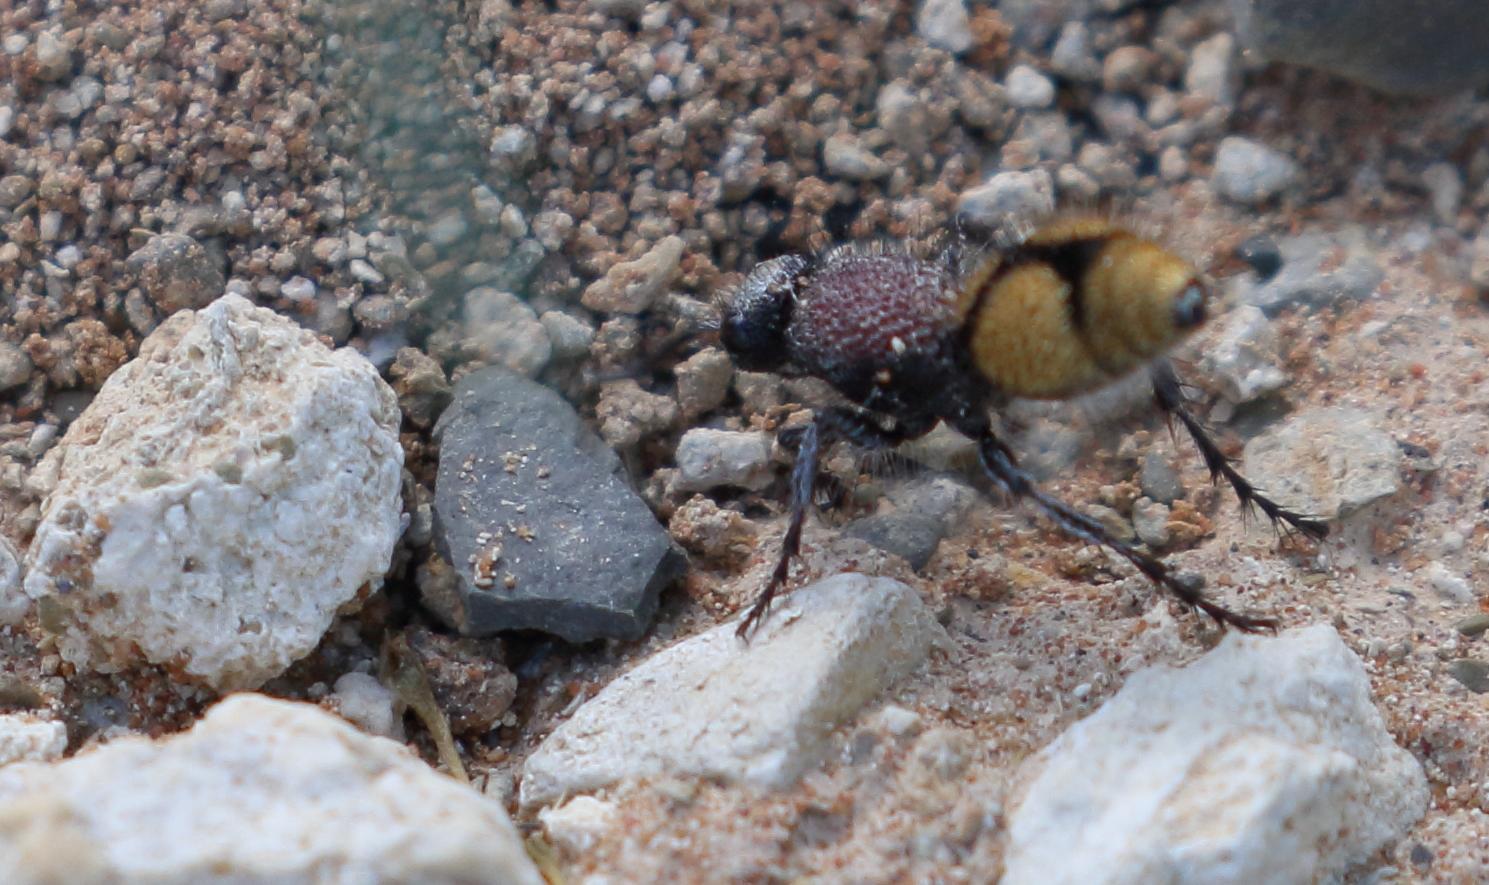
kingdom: Animalia
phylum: Arthropoda
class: Insecta
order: Hymenoptera
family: Mutillidae
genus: Dasylabris
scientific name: Dasylabris namaquana
